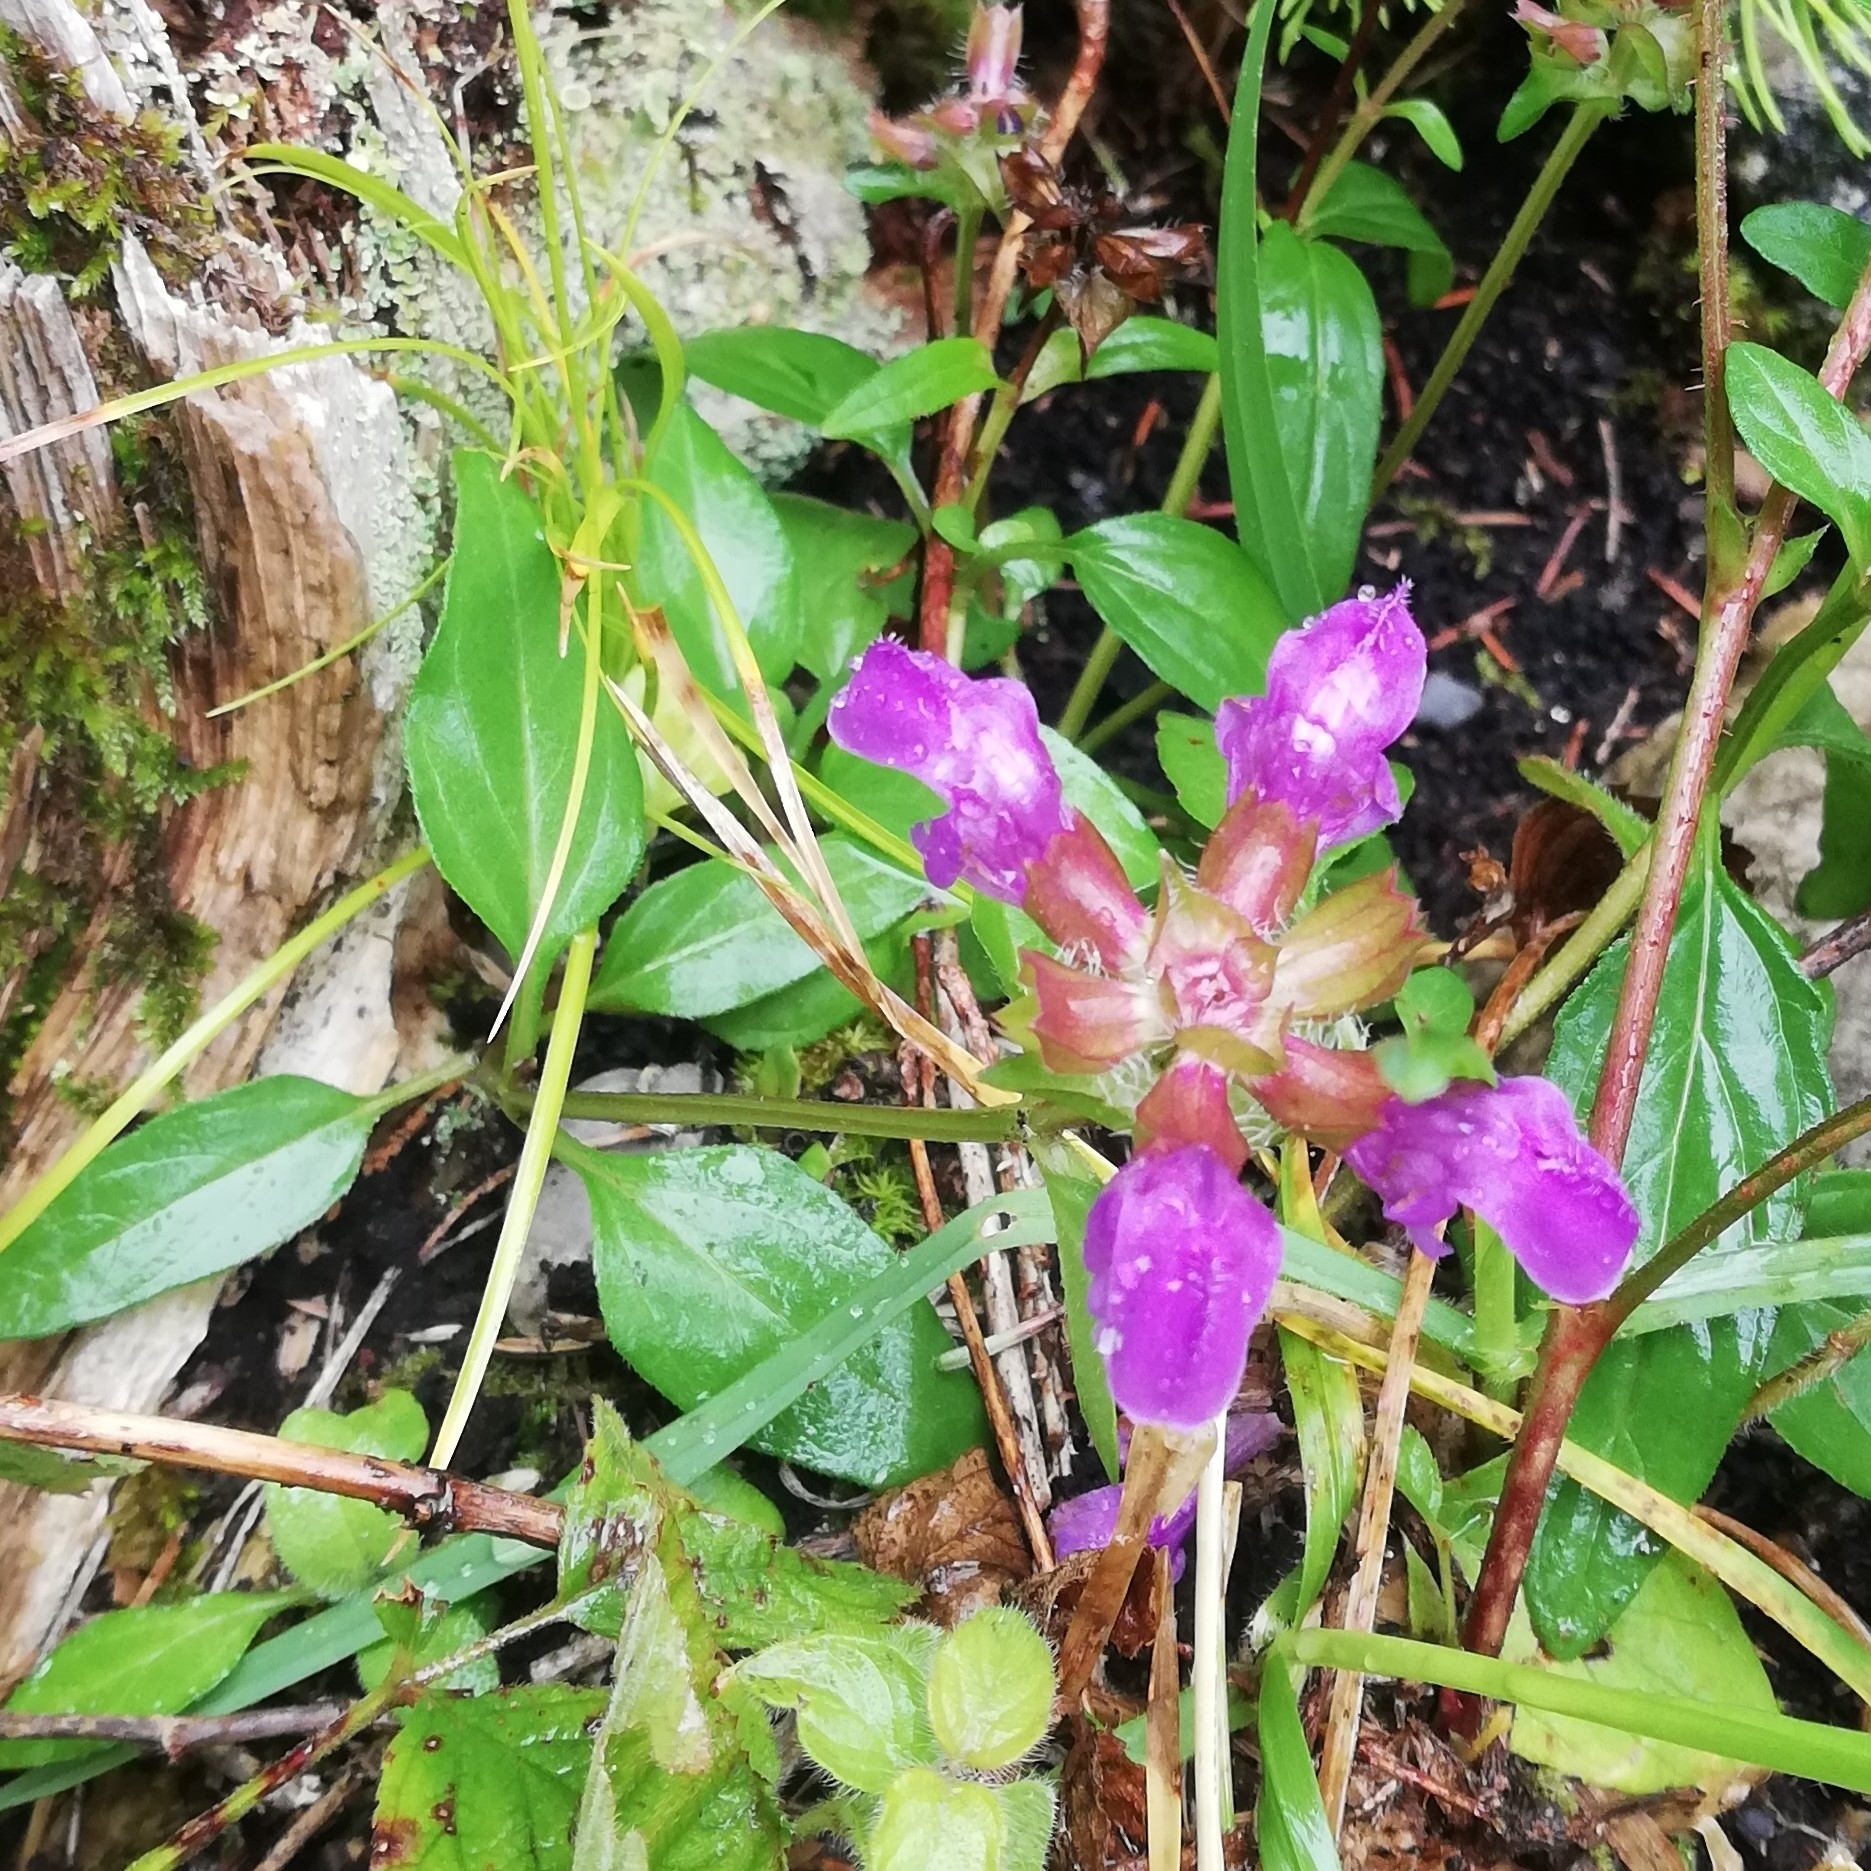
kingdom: Plantae
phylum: Tracheophyta
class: Magnoliopsida
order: Lamiales
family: Lamiaceae
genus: Prunella
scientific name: Prunella grandiflora
